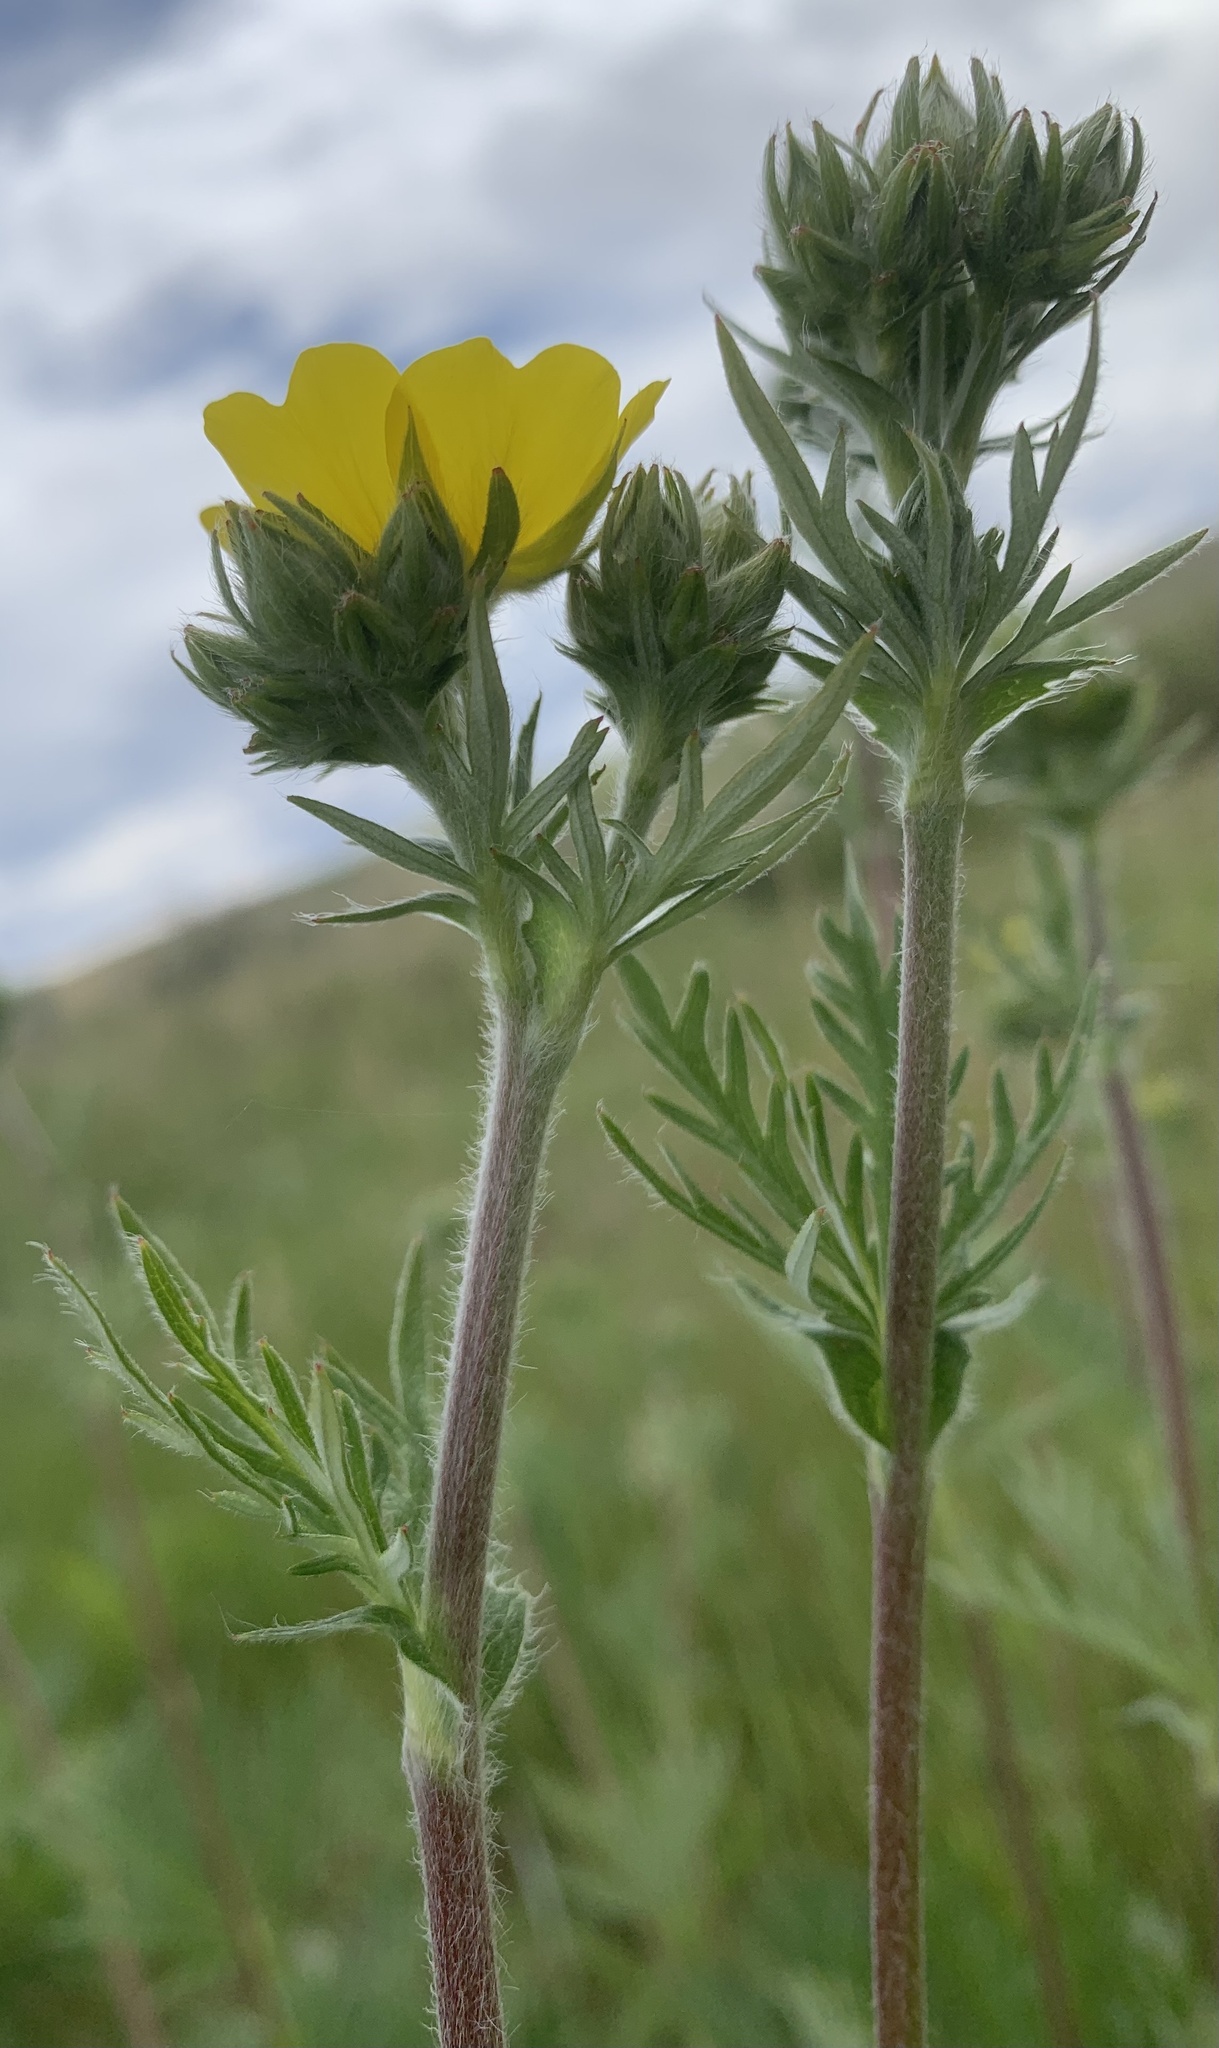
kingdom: Plantae
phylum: Tracheophyta
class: Magnoliopsida
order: Rosales
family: Rosaceae
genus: Potentilla
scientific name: Potentilla gracilis
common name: Graceful cinquefoil
